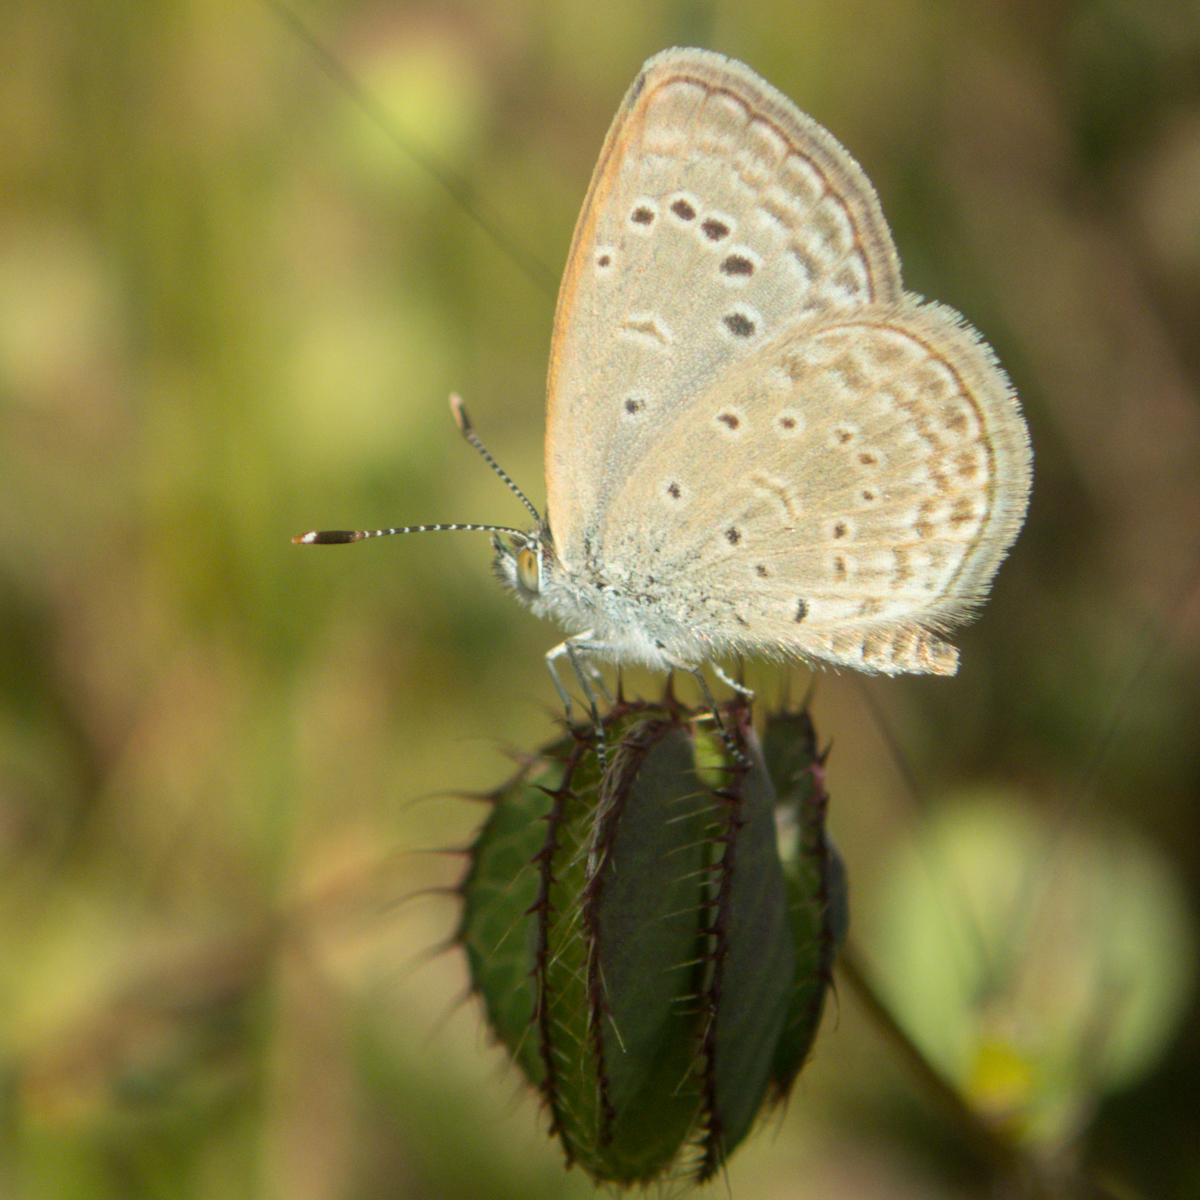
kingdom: Animalia
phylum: Arthropoda
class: Insecta
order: Lepidoptera
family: Lycaenidae
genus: Zizeeria
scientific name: Zizeeria karsandra
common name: Dark grass blue
